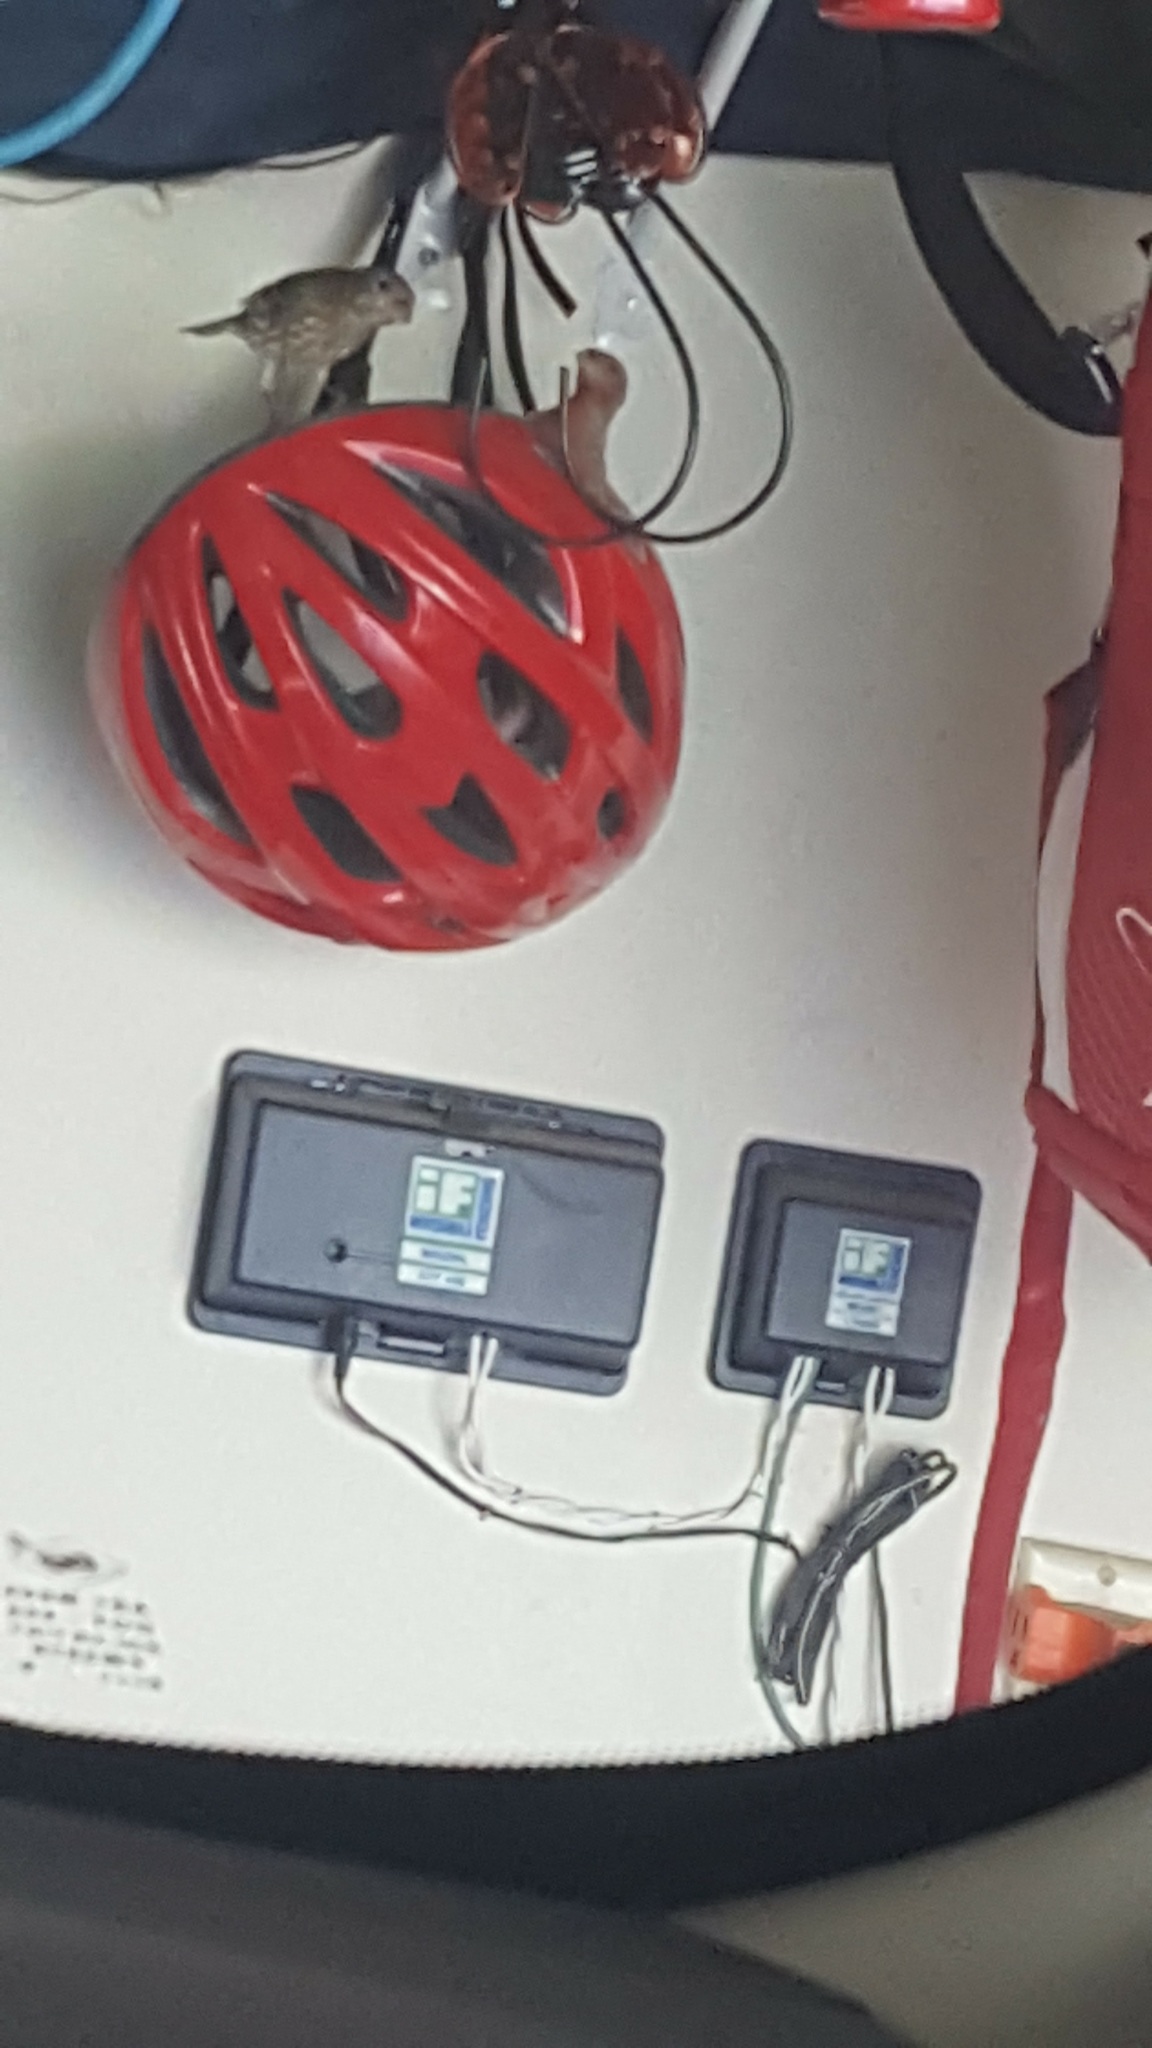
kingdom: Animalia
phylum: Chordata
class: Aves
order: Passeriformes
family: Fringillidae
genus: Haemorhous
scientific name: Haemorhous mexicanus
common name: House finch
